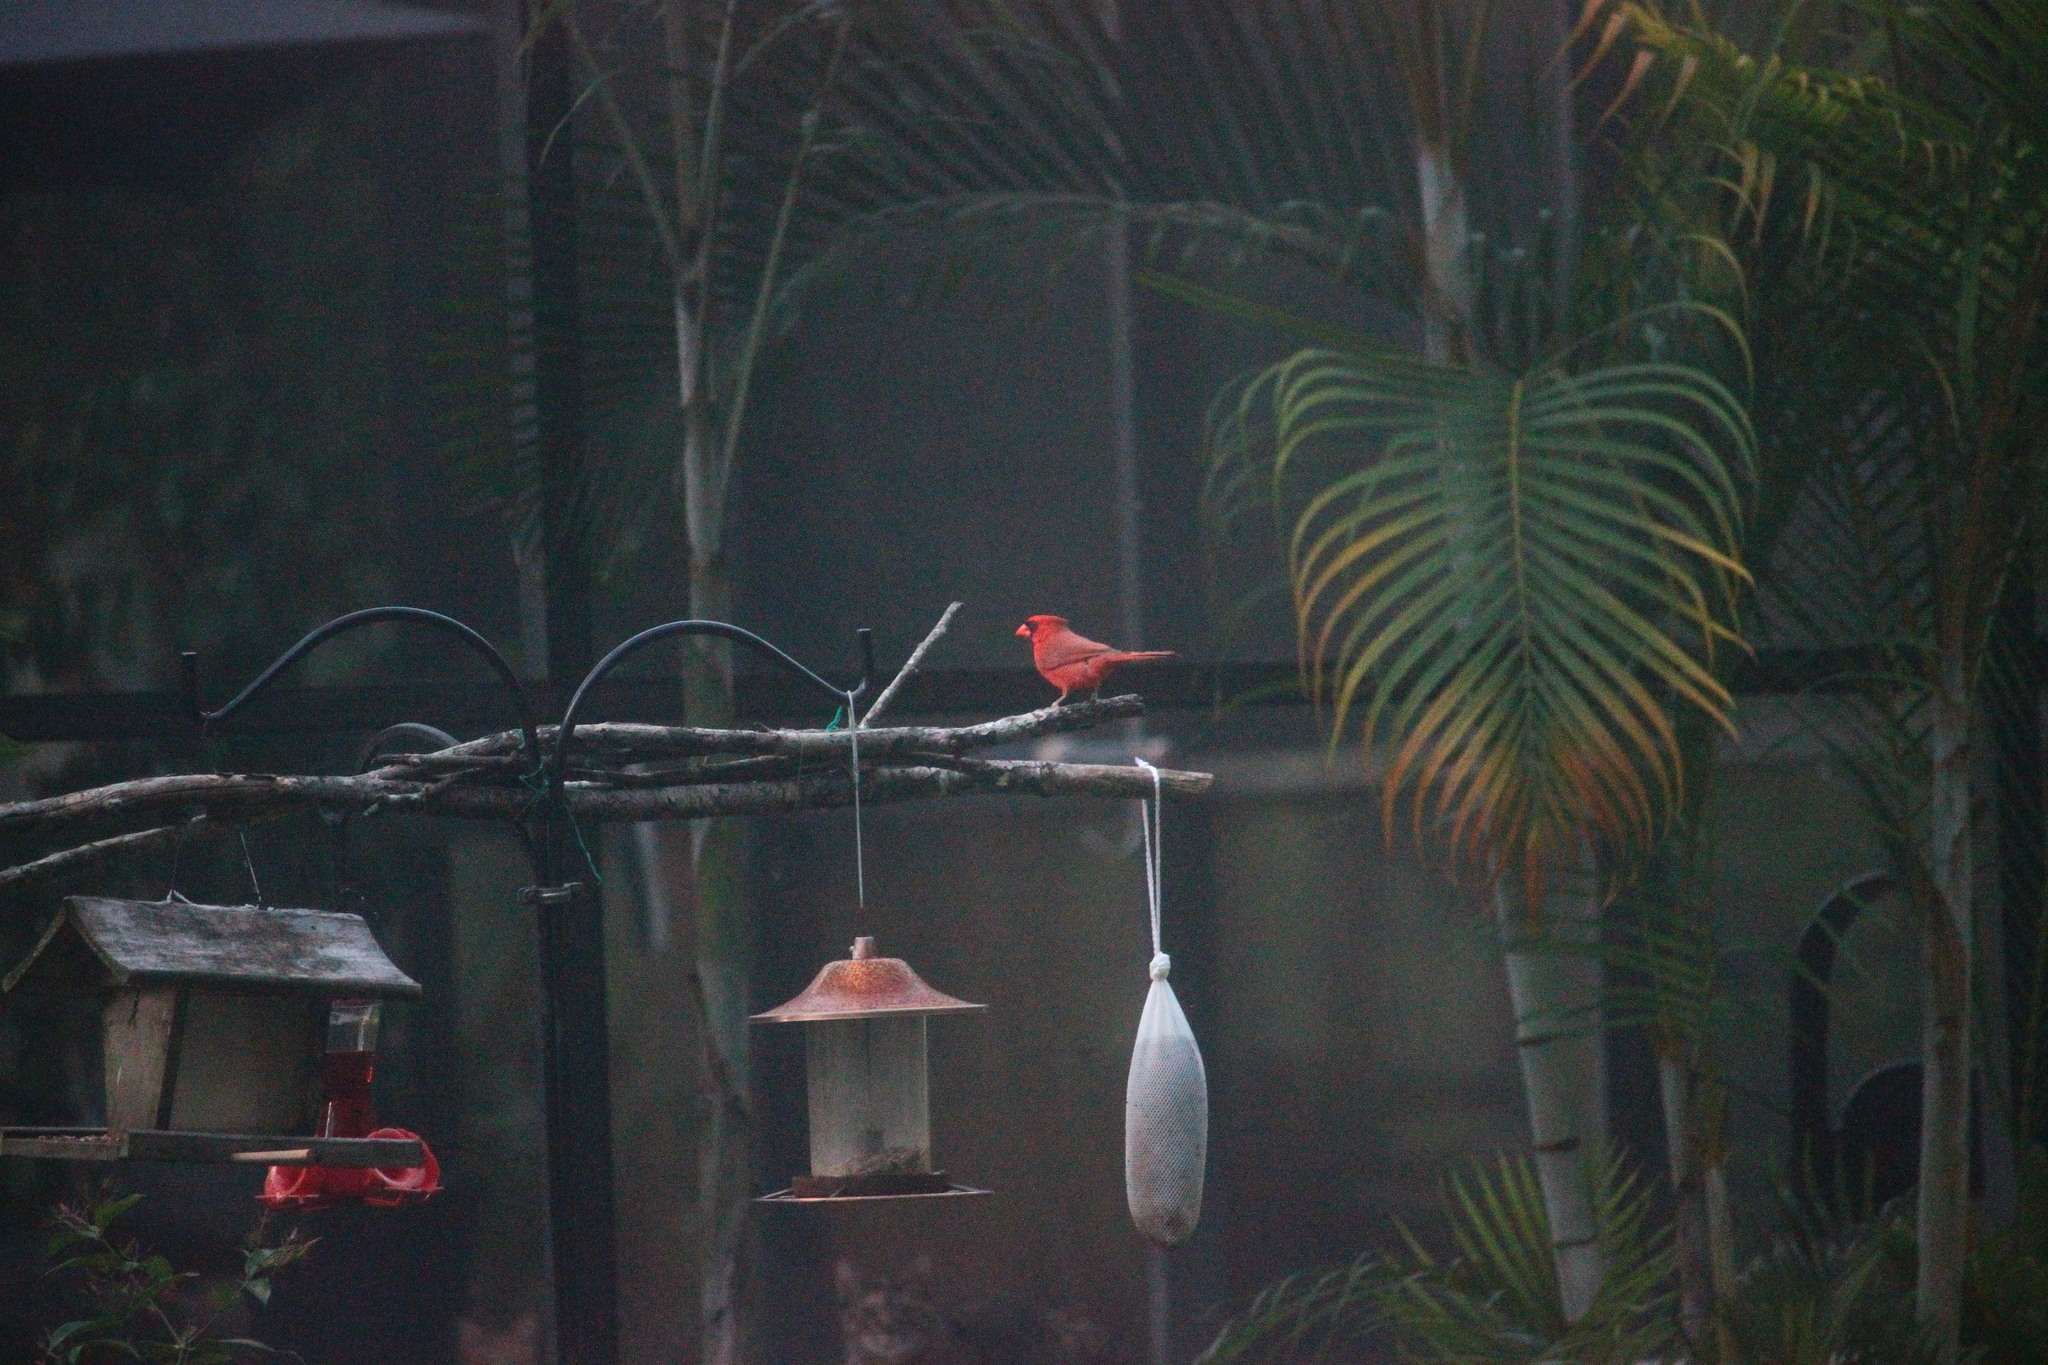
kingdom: Animalia
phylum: Chordata
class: Aves
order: Passeriformes
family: Cardinalidae
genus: Cardinalis
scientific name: Cardinalis cardinalis
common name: Northern cardinal
